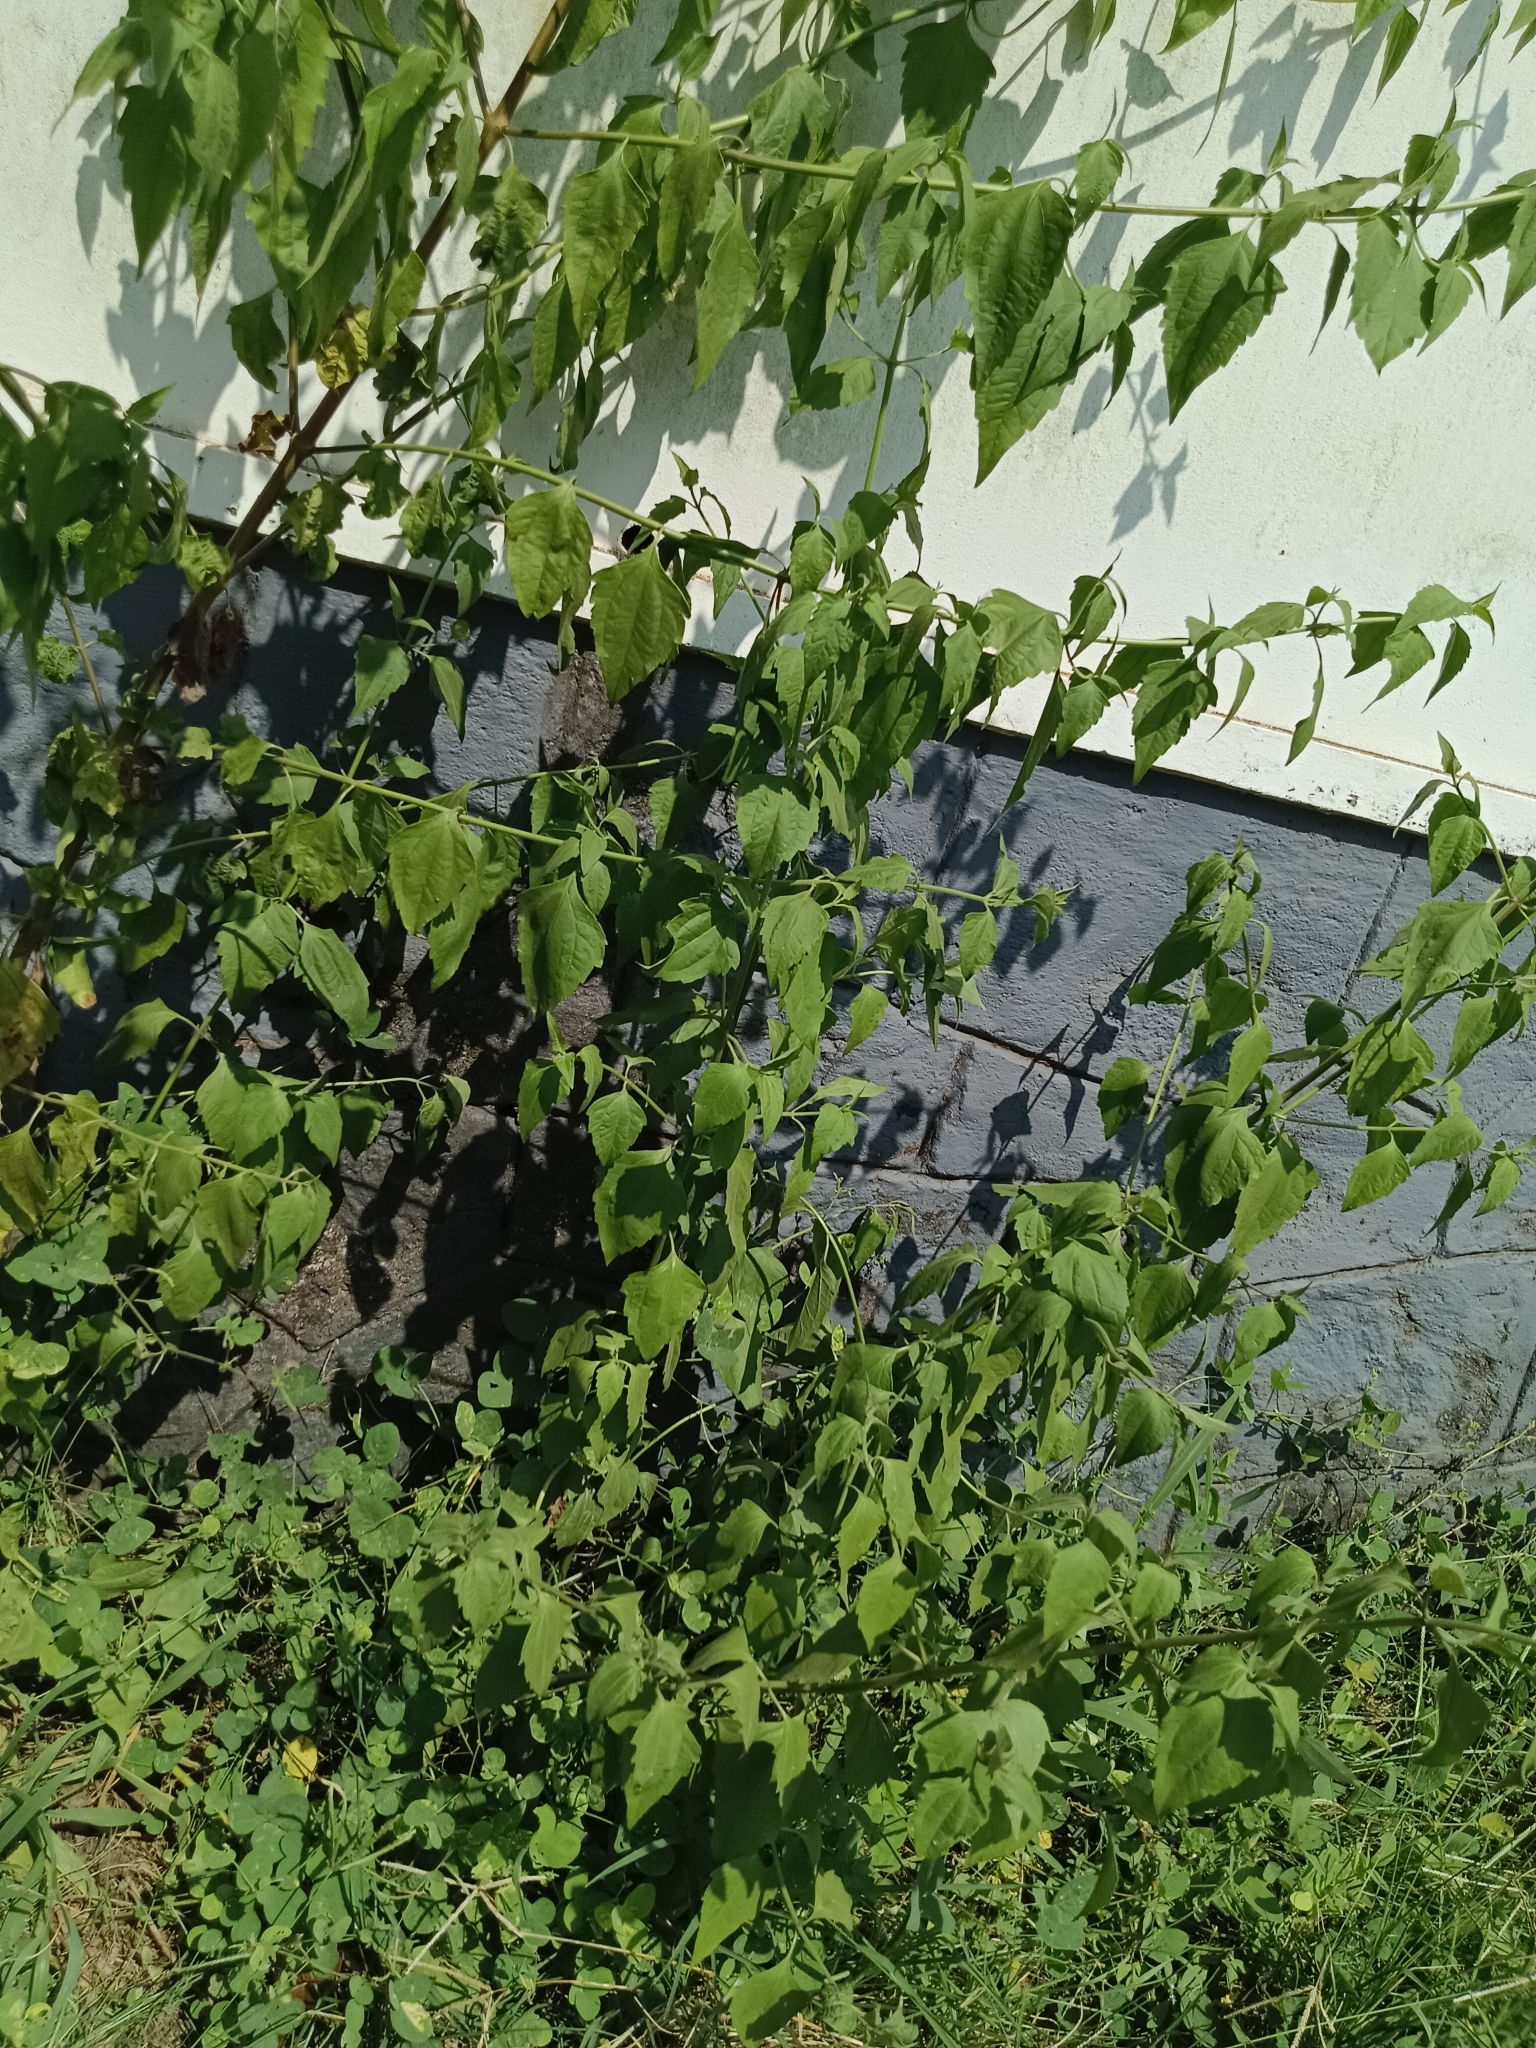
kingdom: Plantae
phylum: Tracheophyta
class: Magnoliopsida
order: Asterales
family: Asteraceae
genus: Chromolaena
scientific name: Chromolaena odorata
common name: Siamweed
